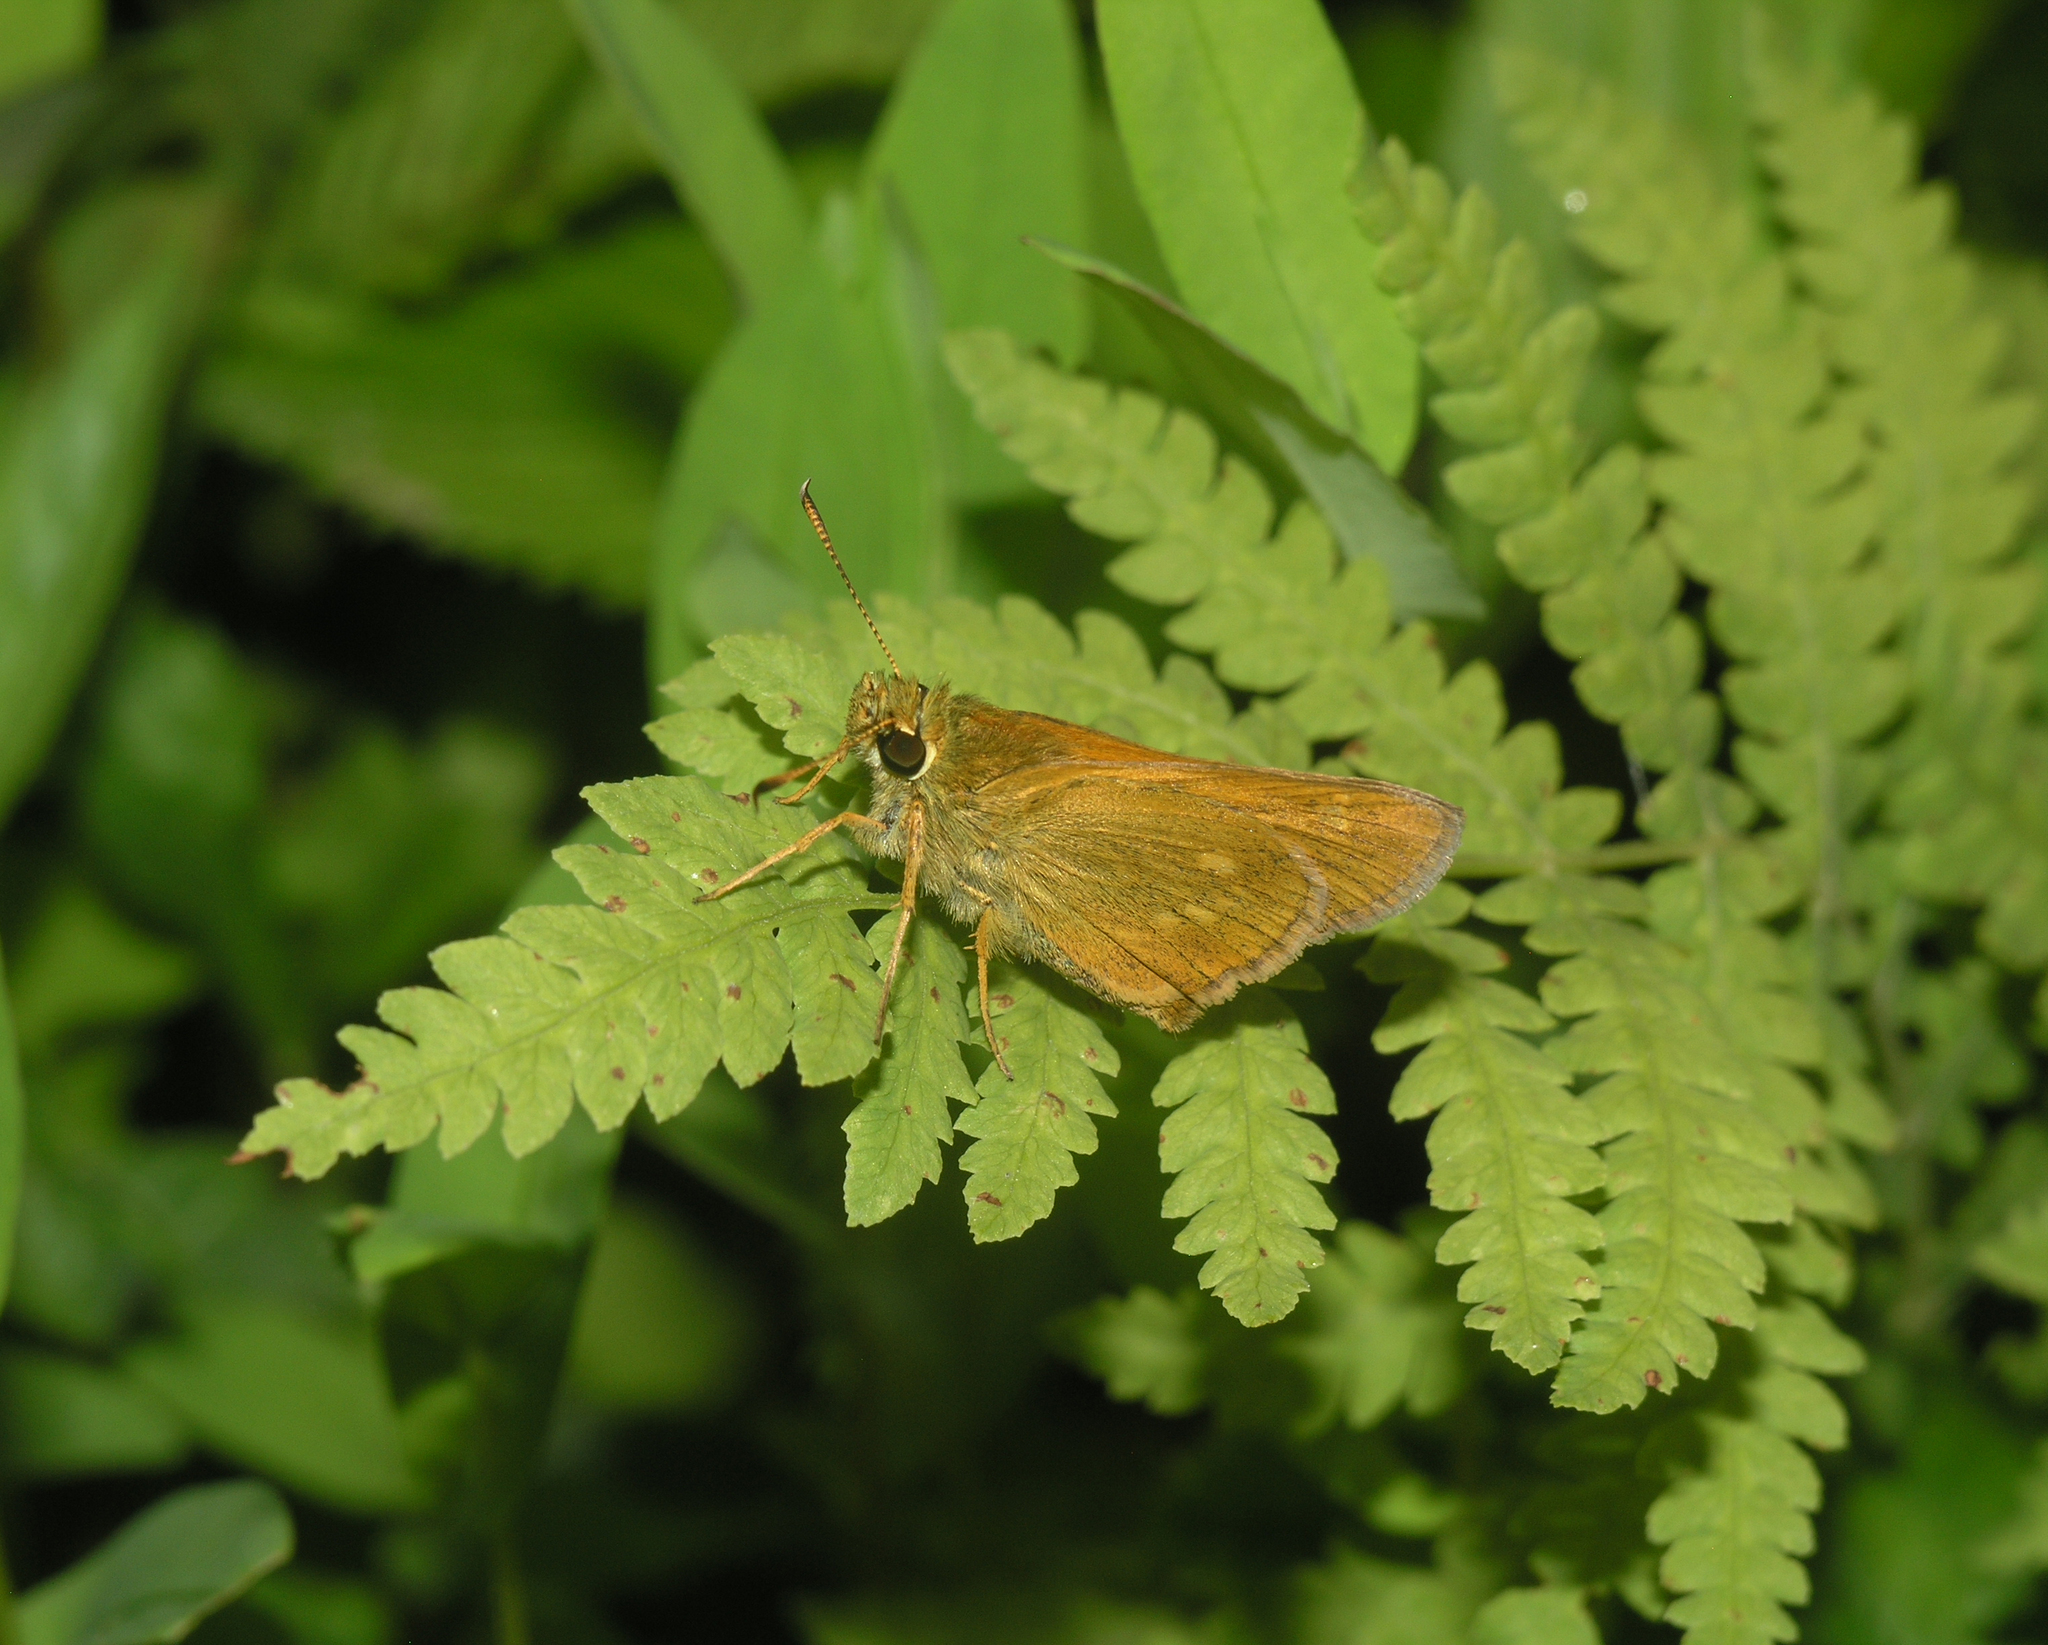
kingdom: Plantae
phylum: Tracheophyta
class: Polypodiopsida
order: Polypodiales
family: Thelypteridaceae
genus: Thelypteris
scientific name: Thelypteris palustris
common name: Marsh fern
